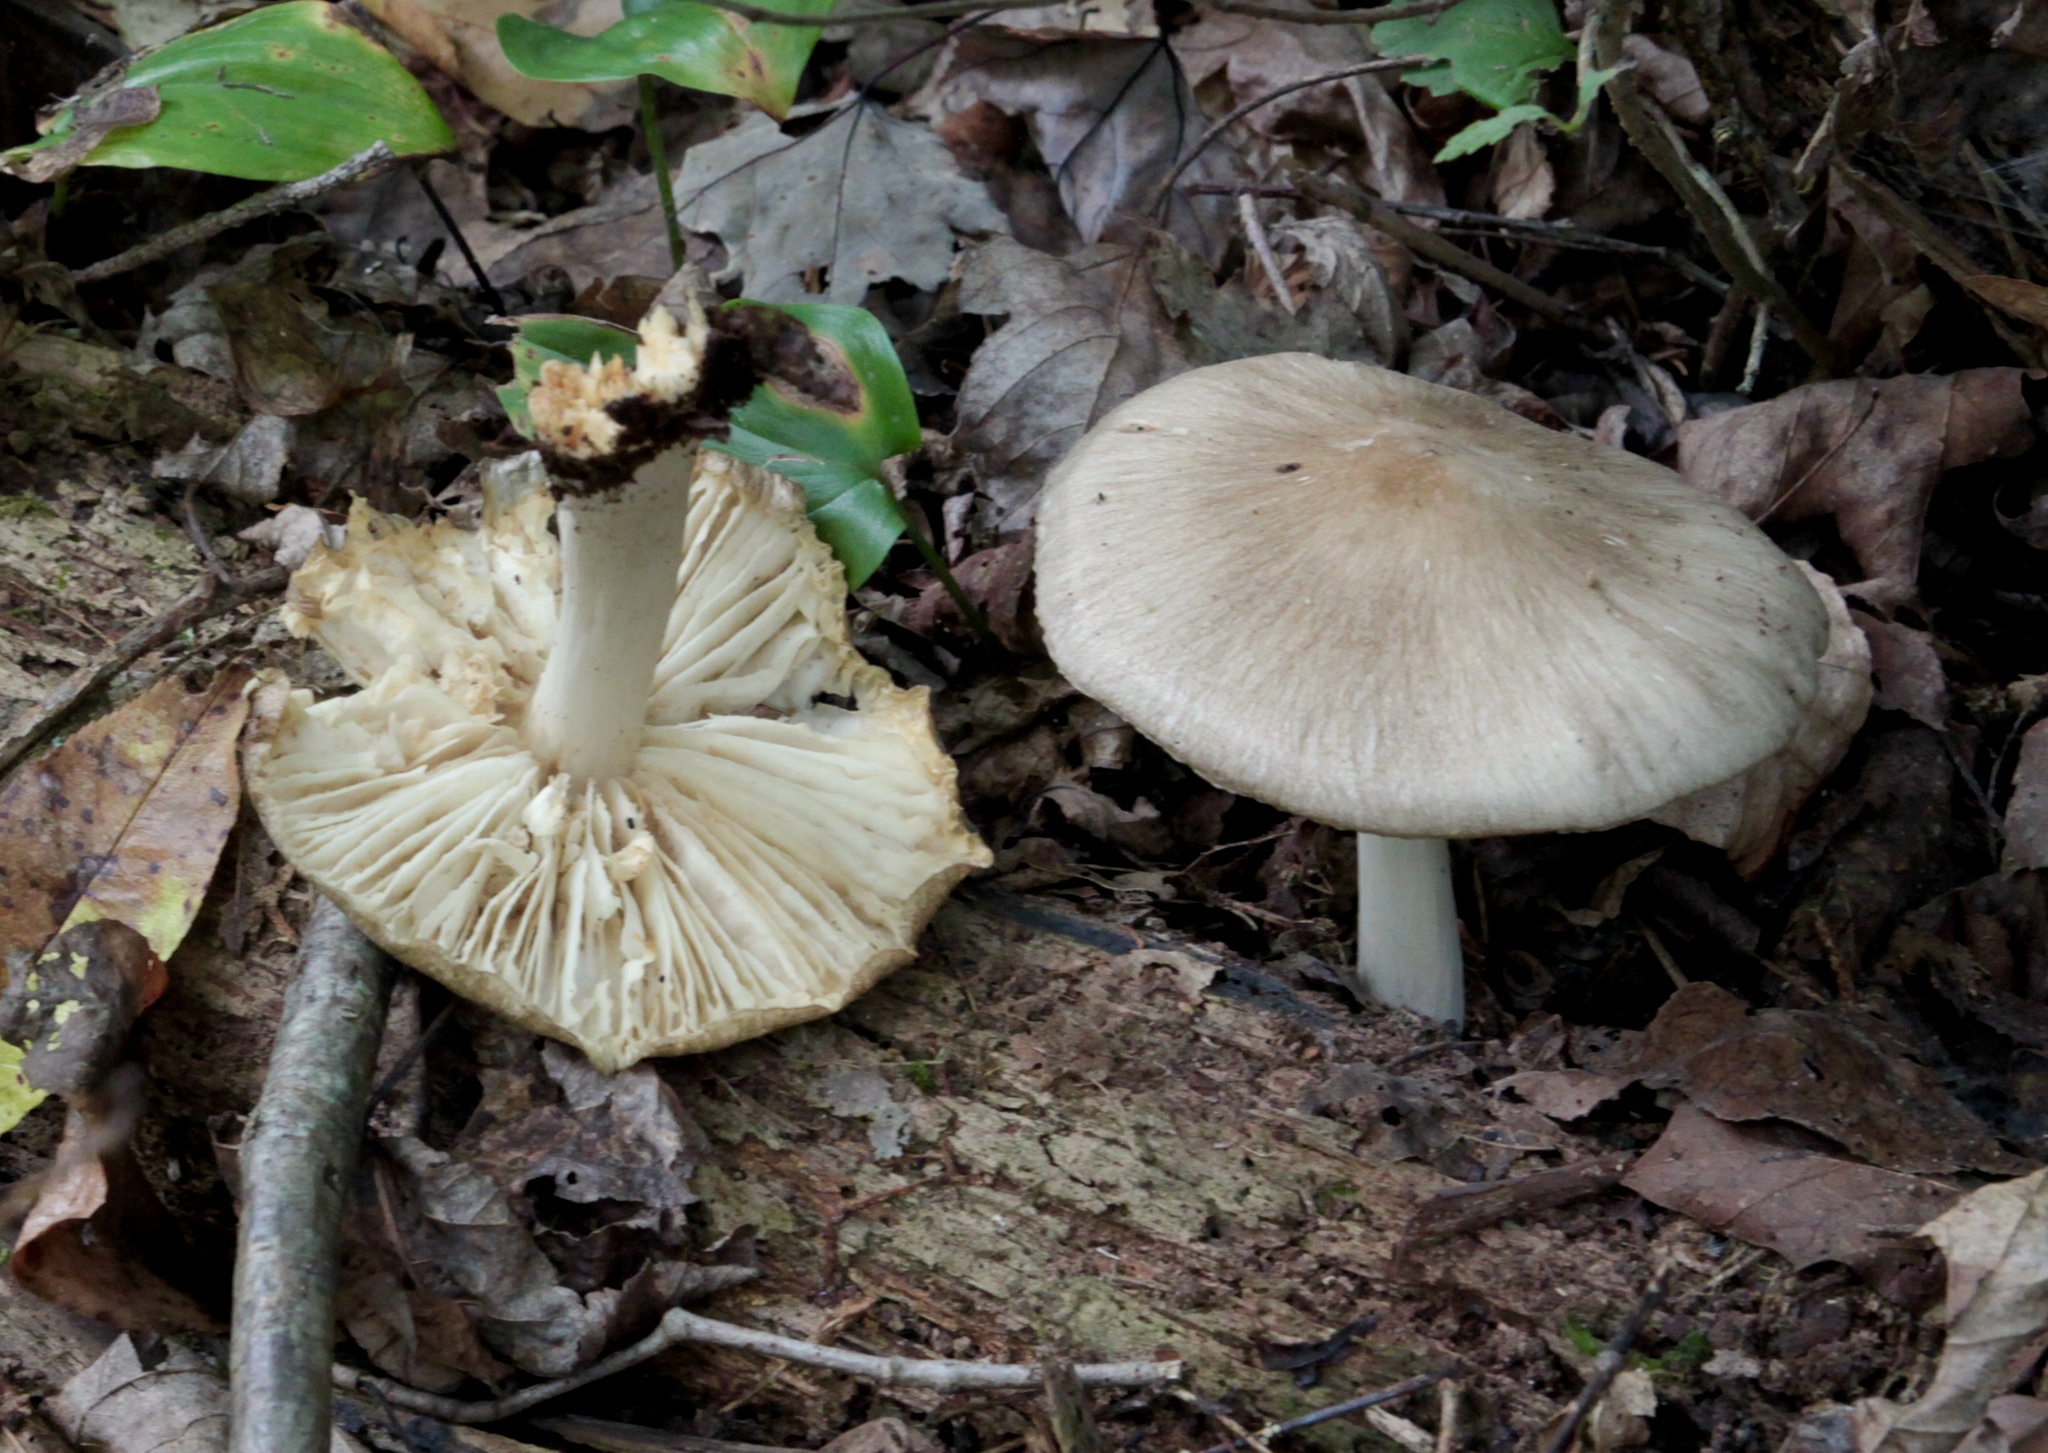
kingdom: Fungi
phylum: Basidiomycota
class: Agaricomycetes
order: Agaricales
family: Tricholomataceae
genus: Megacollybia
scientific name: Megacollybia rodmanii
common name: Eastern american platterful mushroom
